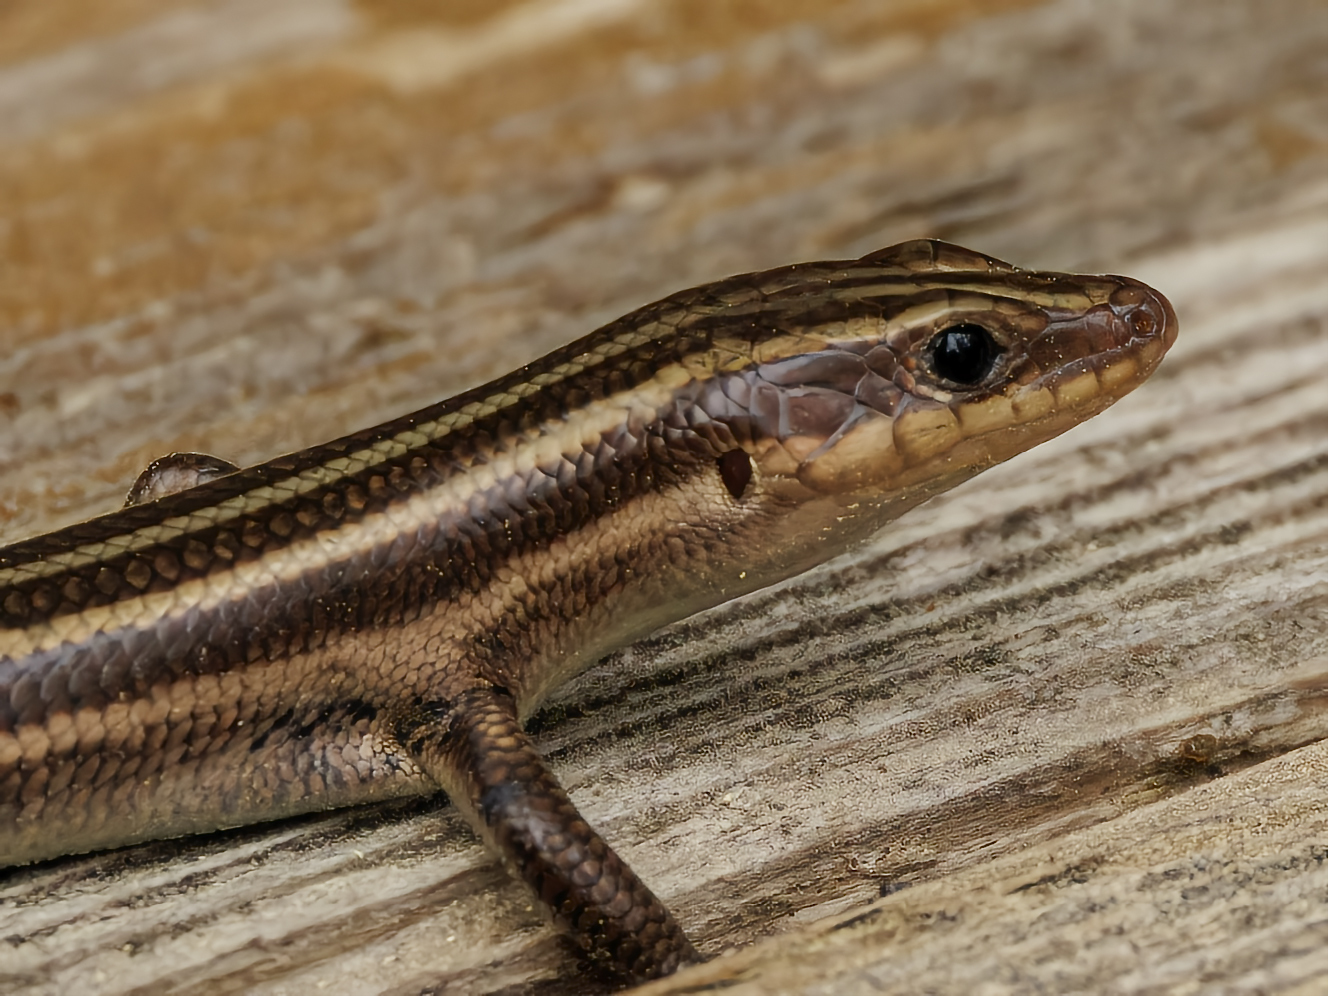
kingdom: Animalia
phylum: Chordata
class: Squamata
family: Scincidae
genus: Plestiodon
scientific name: Plestiodon fasciatus
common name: Five-lined skink
